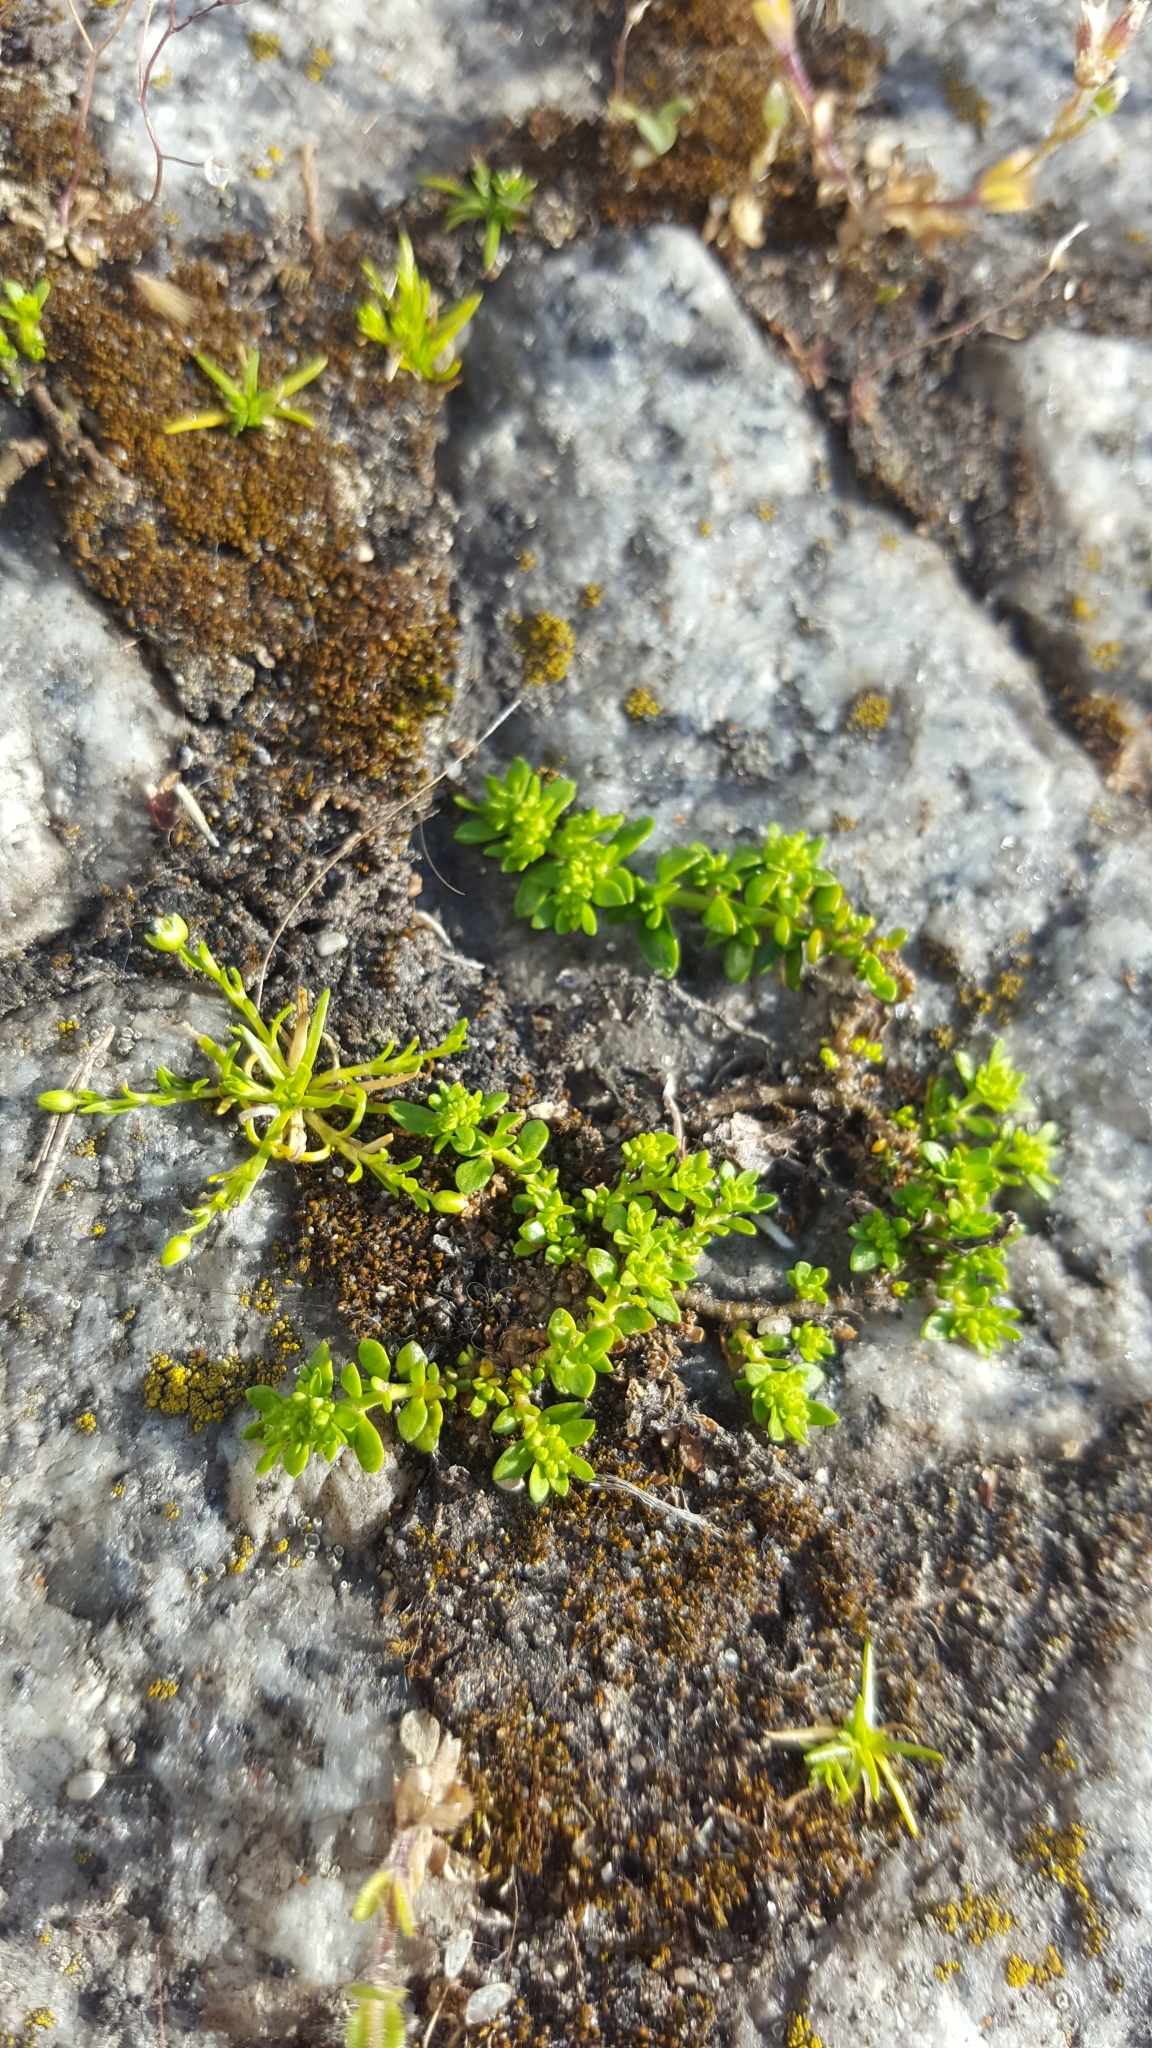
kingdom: Plantae
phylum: Tracheophyta
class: Magnoliopsida
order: Caryophyllales
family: Caryophyllaceae
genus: Herniaria
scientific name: Herniaria glabra
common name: Smooth rupturewort
